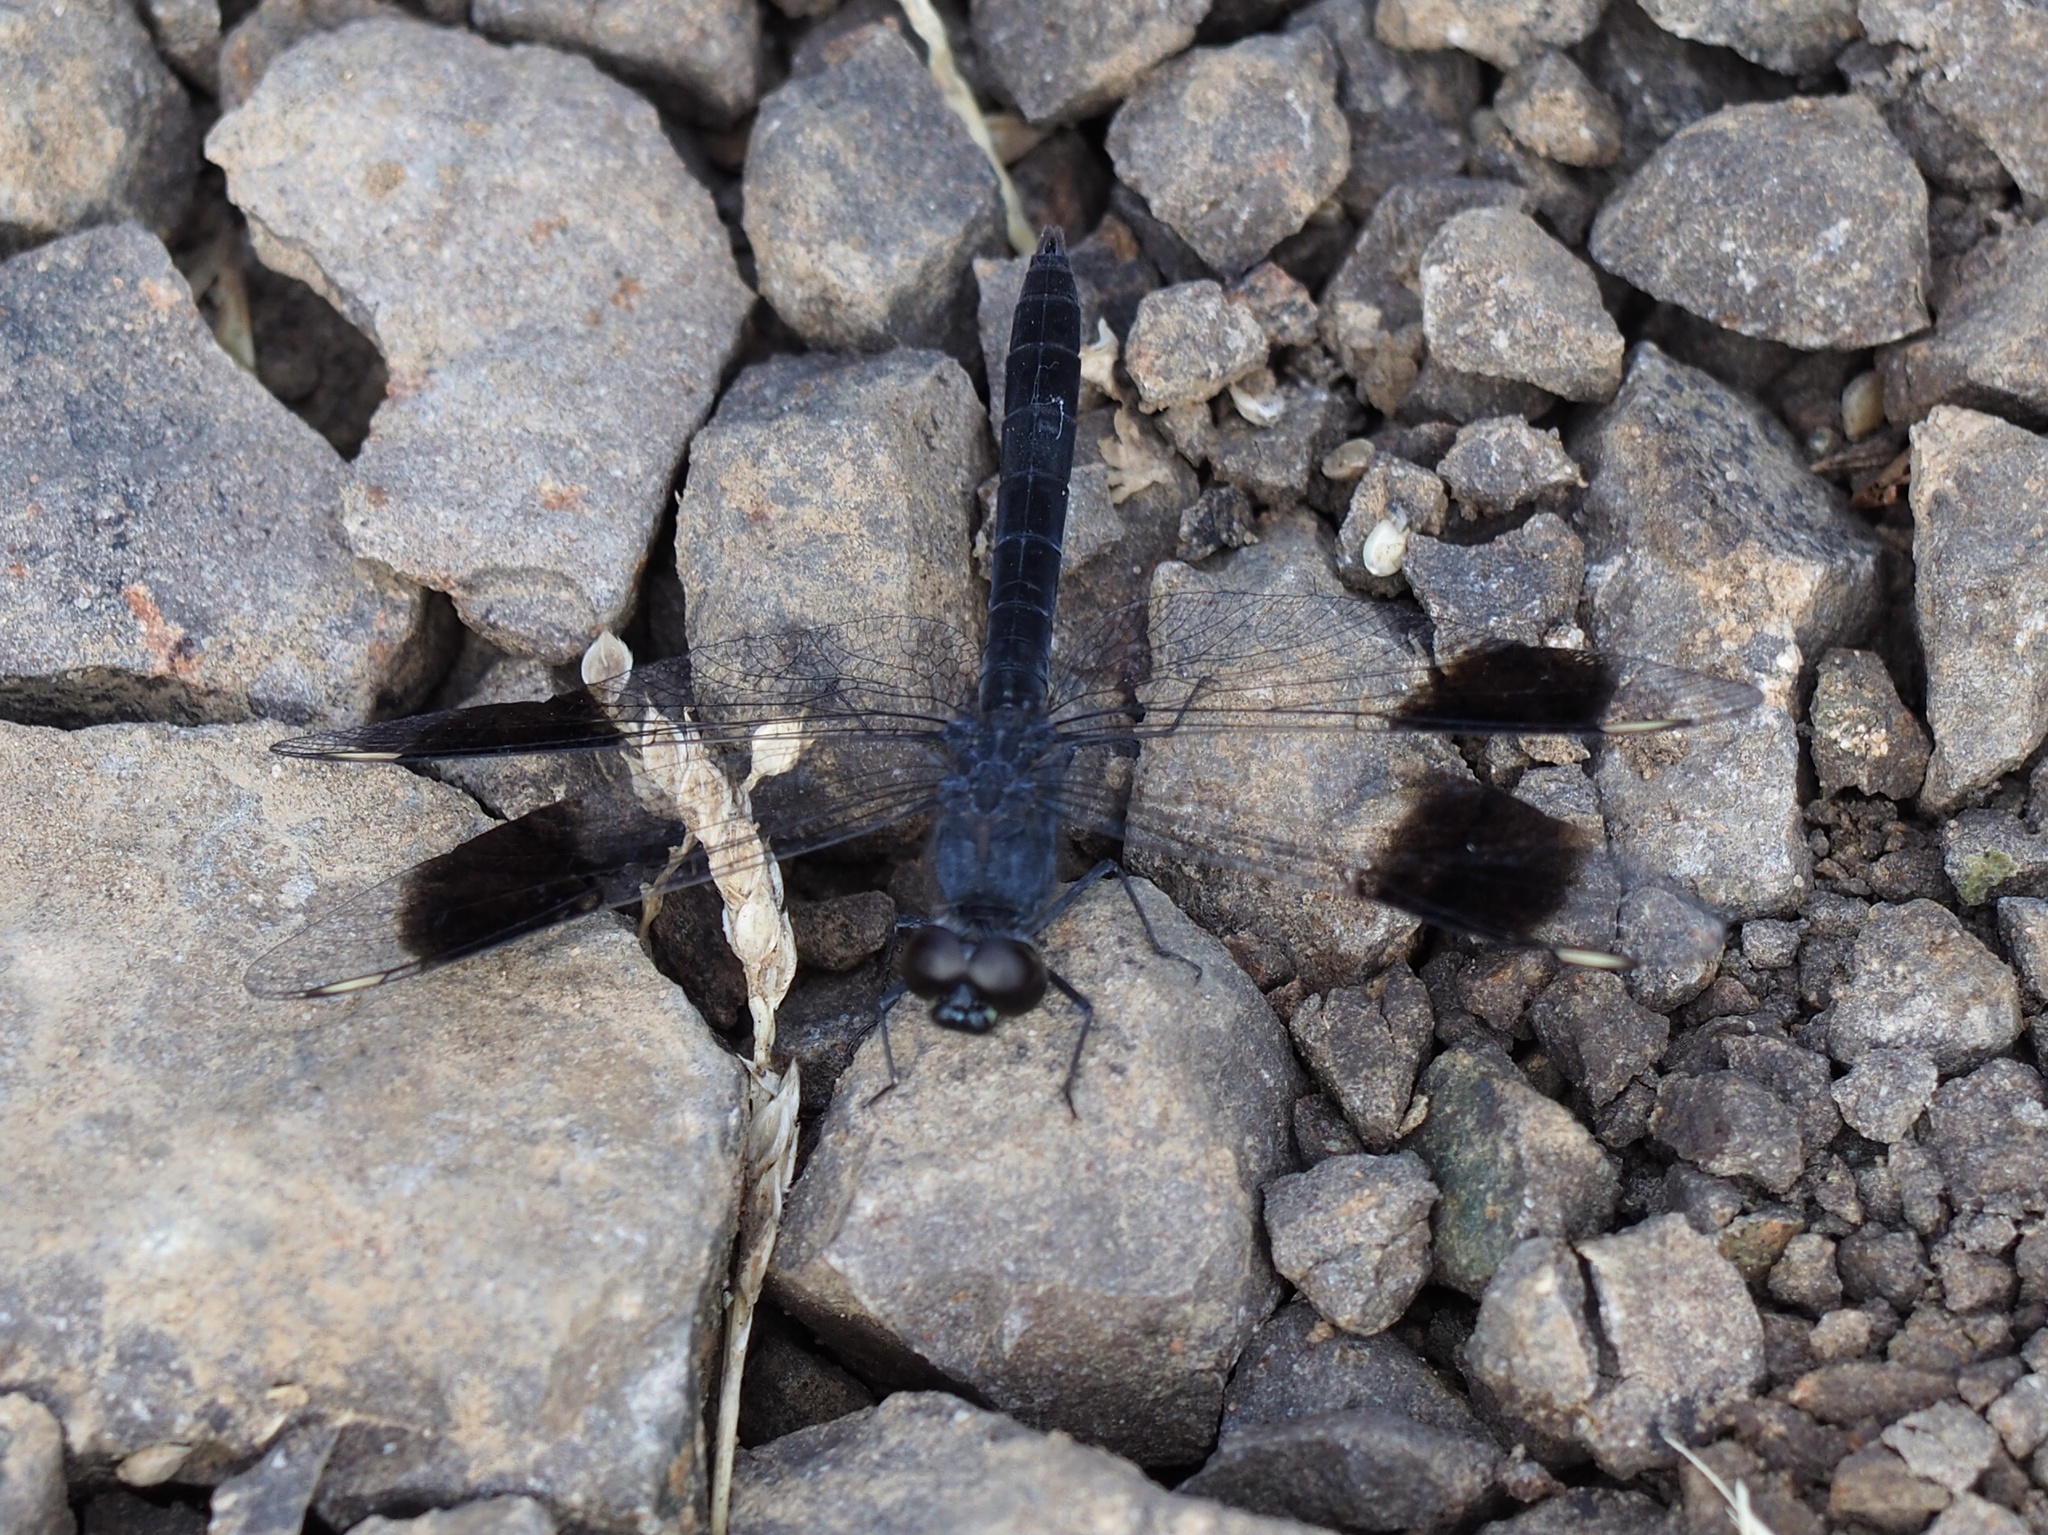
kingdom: Animalia
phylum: Arthropoda
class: Insecta
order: Odonata
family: Libellulidae
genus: Brachythemis
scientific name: Brachythemis leucosticta
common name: Banded groundling
